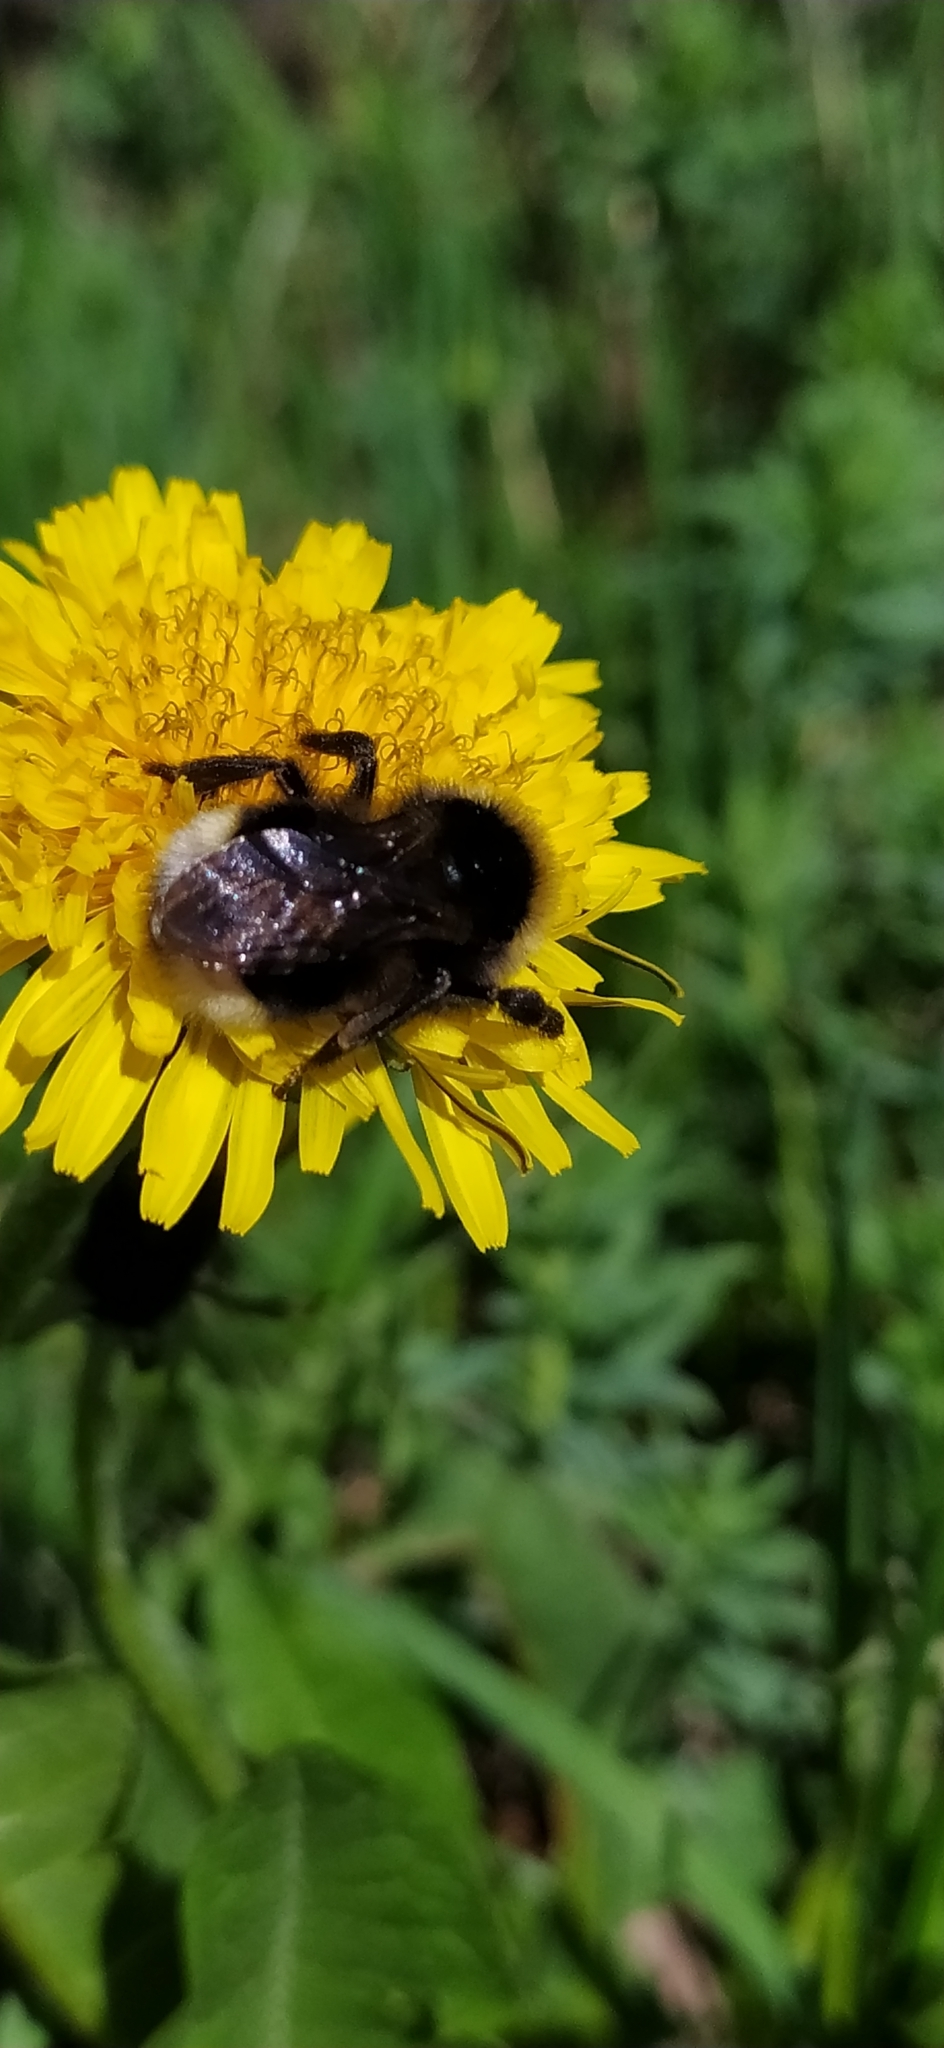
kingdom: Animalia
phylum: Arthropoda
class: Insecta
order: Hymenoptera
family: Apidae
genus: Bombus
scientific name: Bombus bohemicus
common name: Gypsy cuckoo bee
